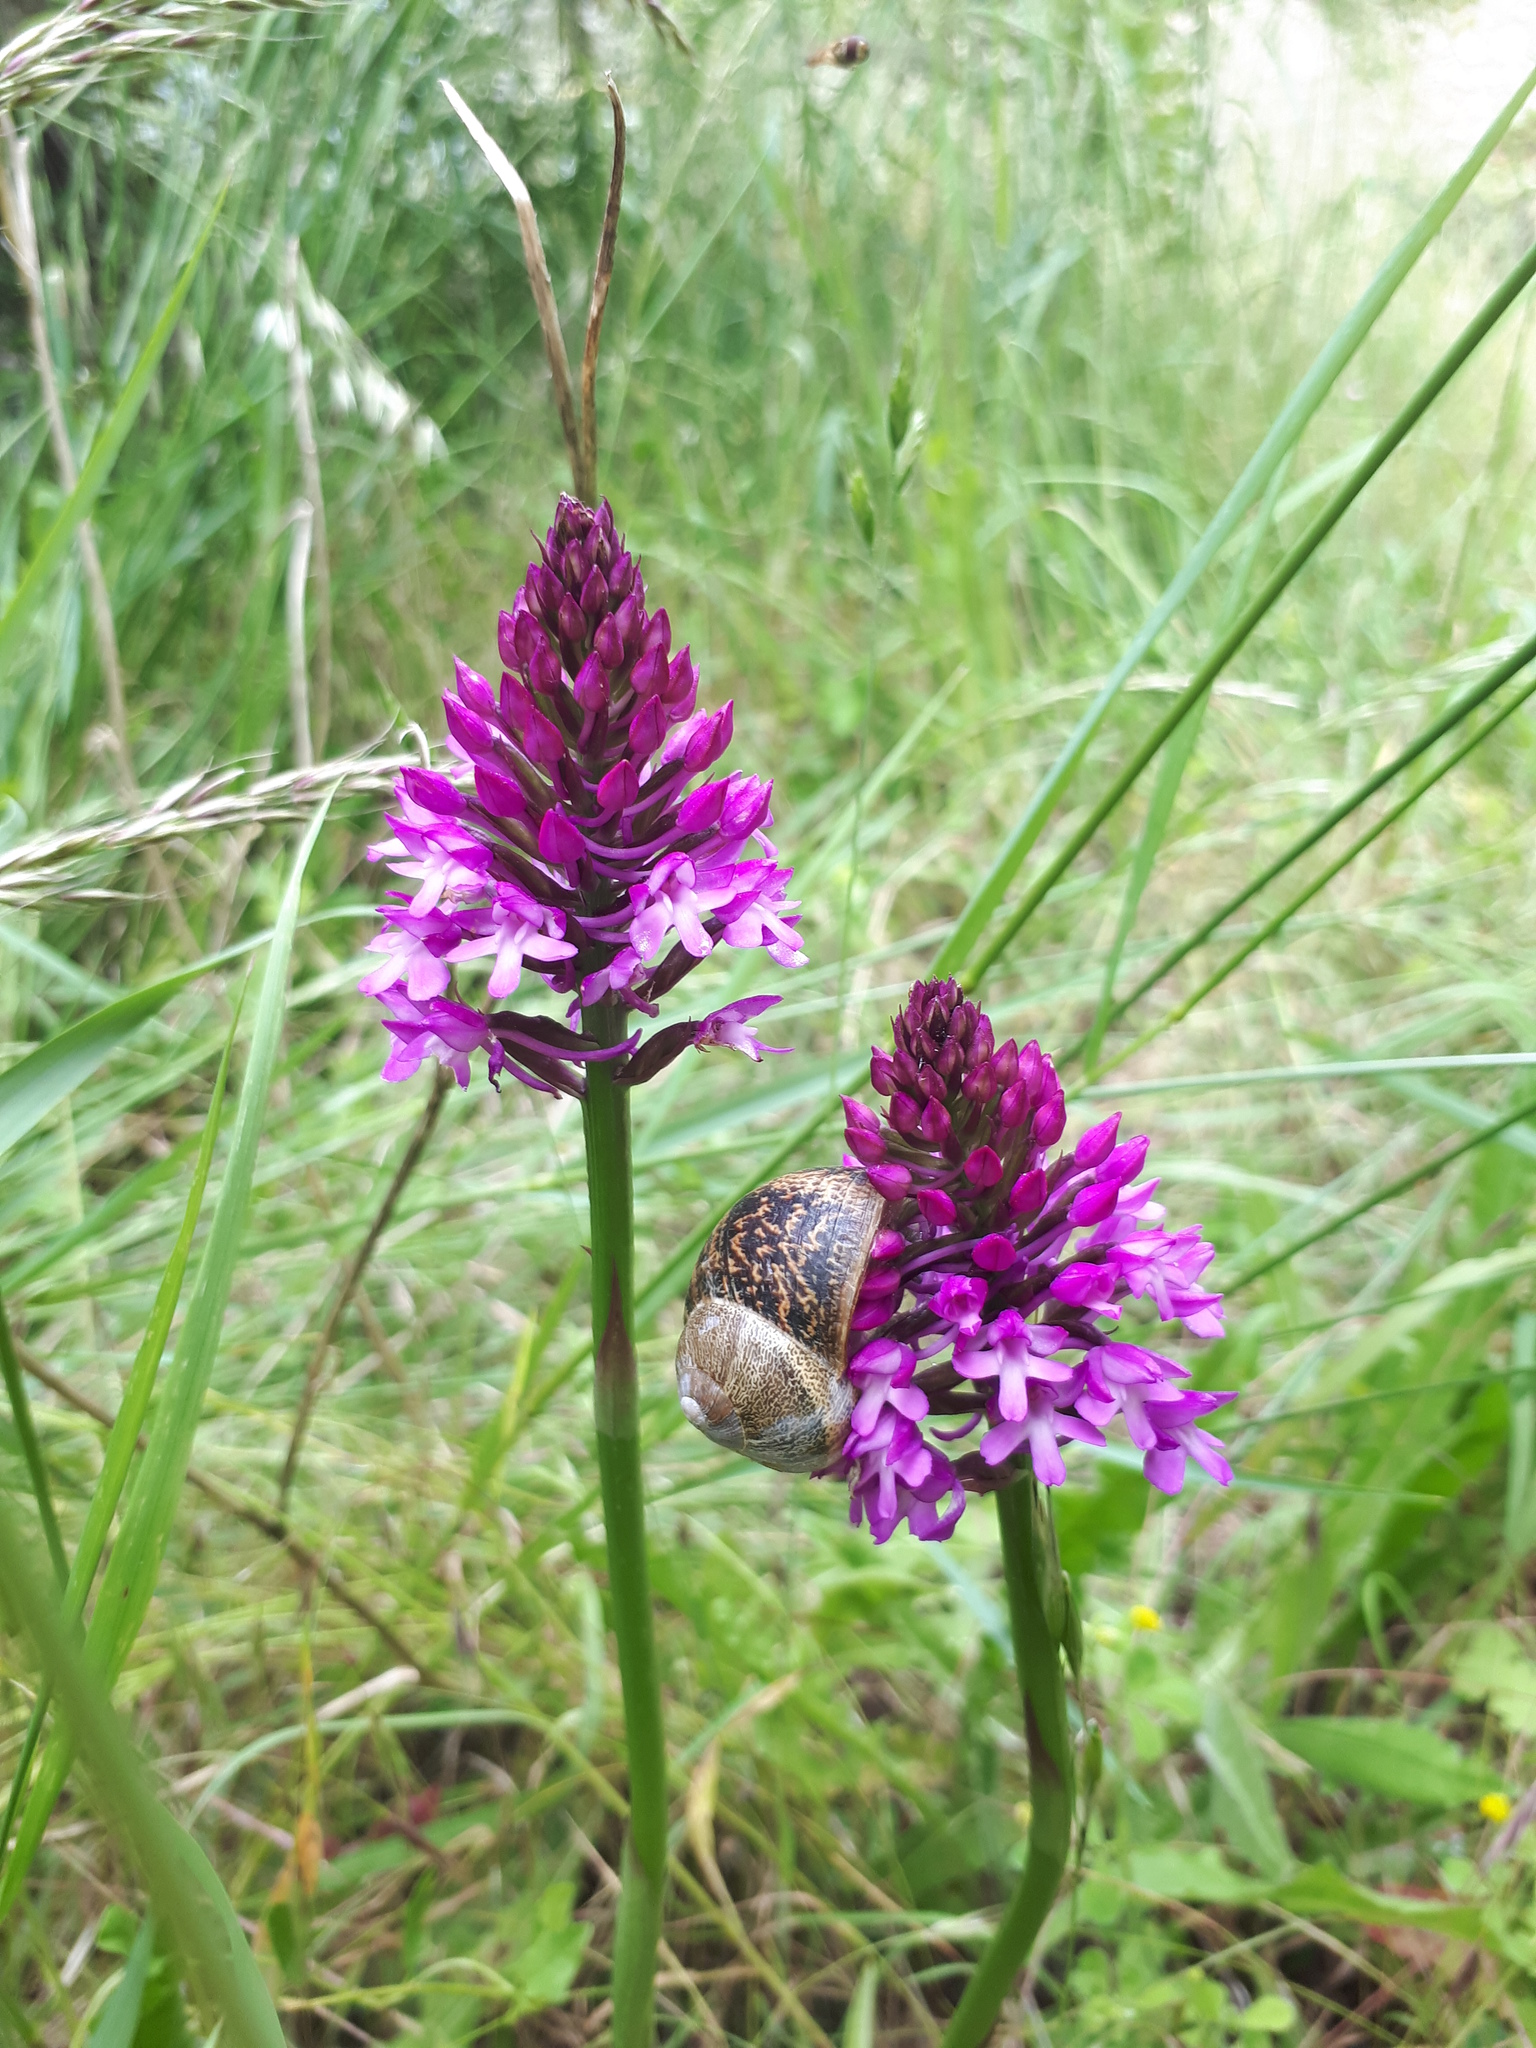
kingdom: Animalia
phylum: Mollusca
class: Gastropoda
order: Stylommatophora
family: Helicidae
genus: Cornu
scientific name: Cornu aspersum
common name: Brown garden snail
